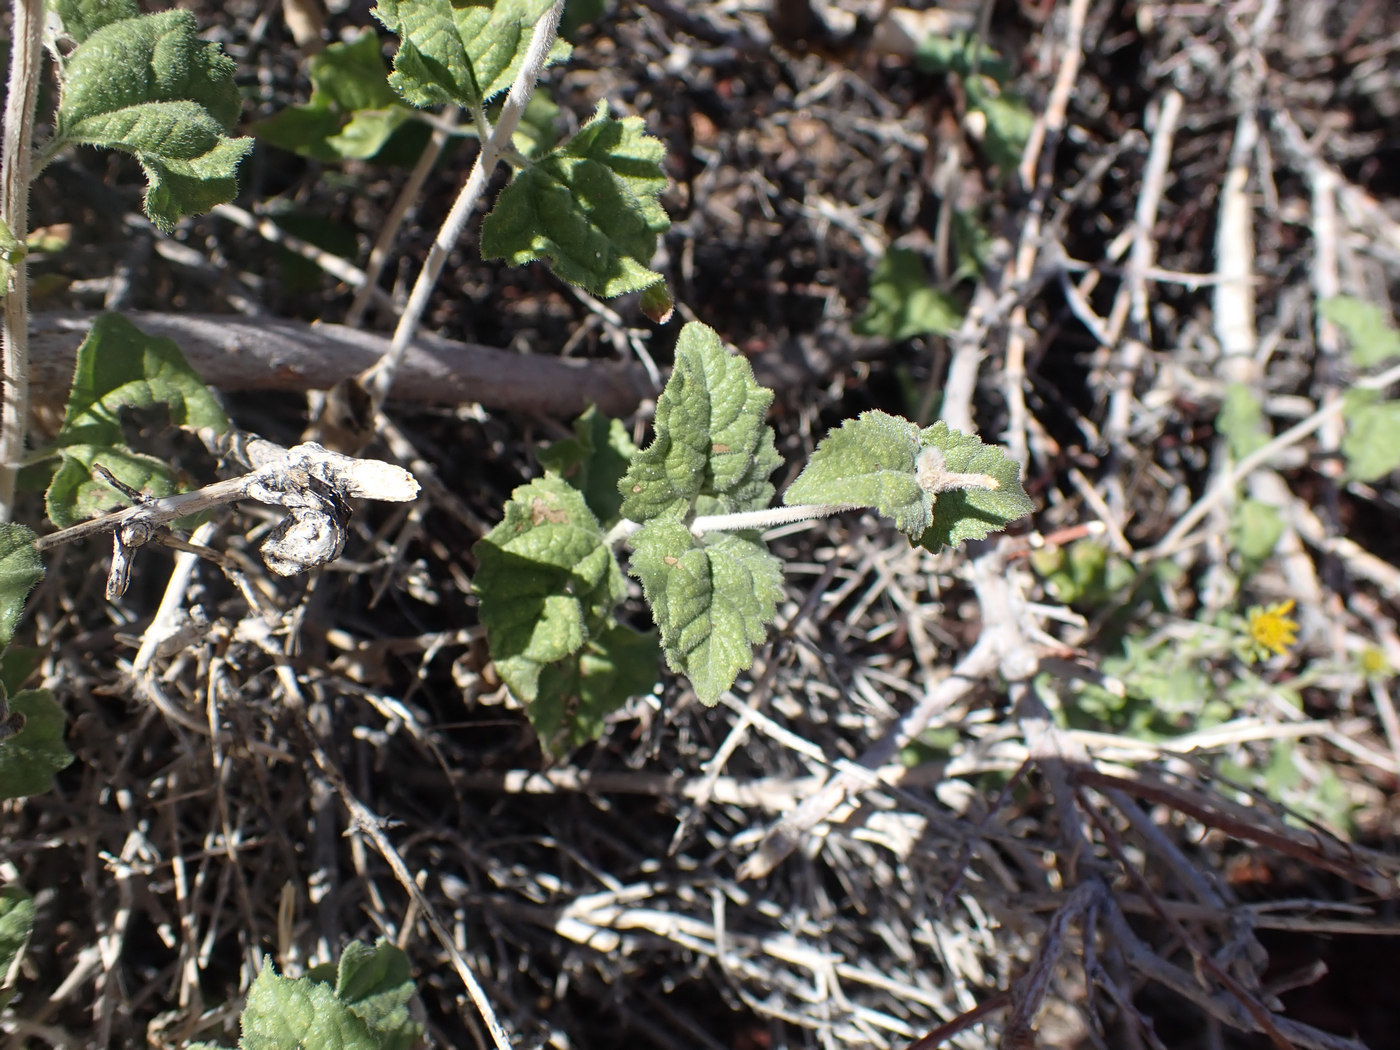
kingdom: Plantae
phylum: Tracheophyta
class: Magnoliopsida
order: Asterales
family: Asteraceae
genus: Bahiopsis
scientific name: Bahiopsis parishii
